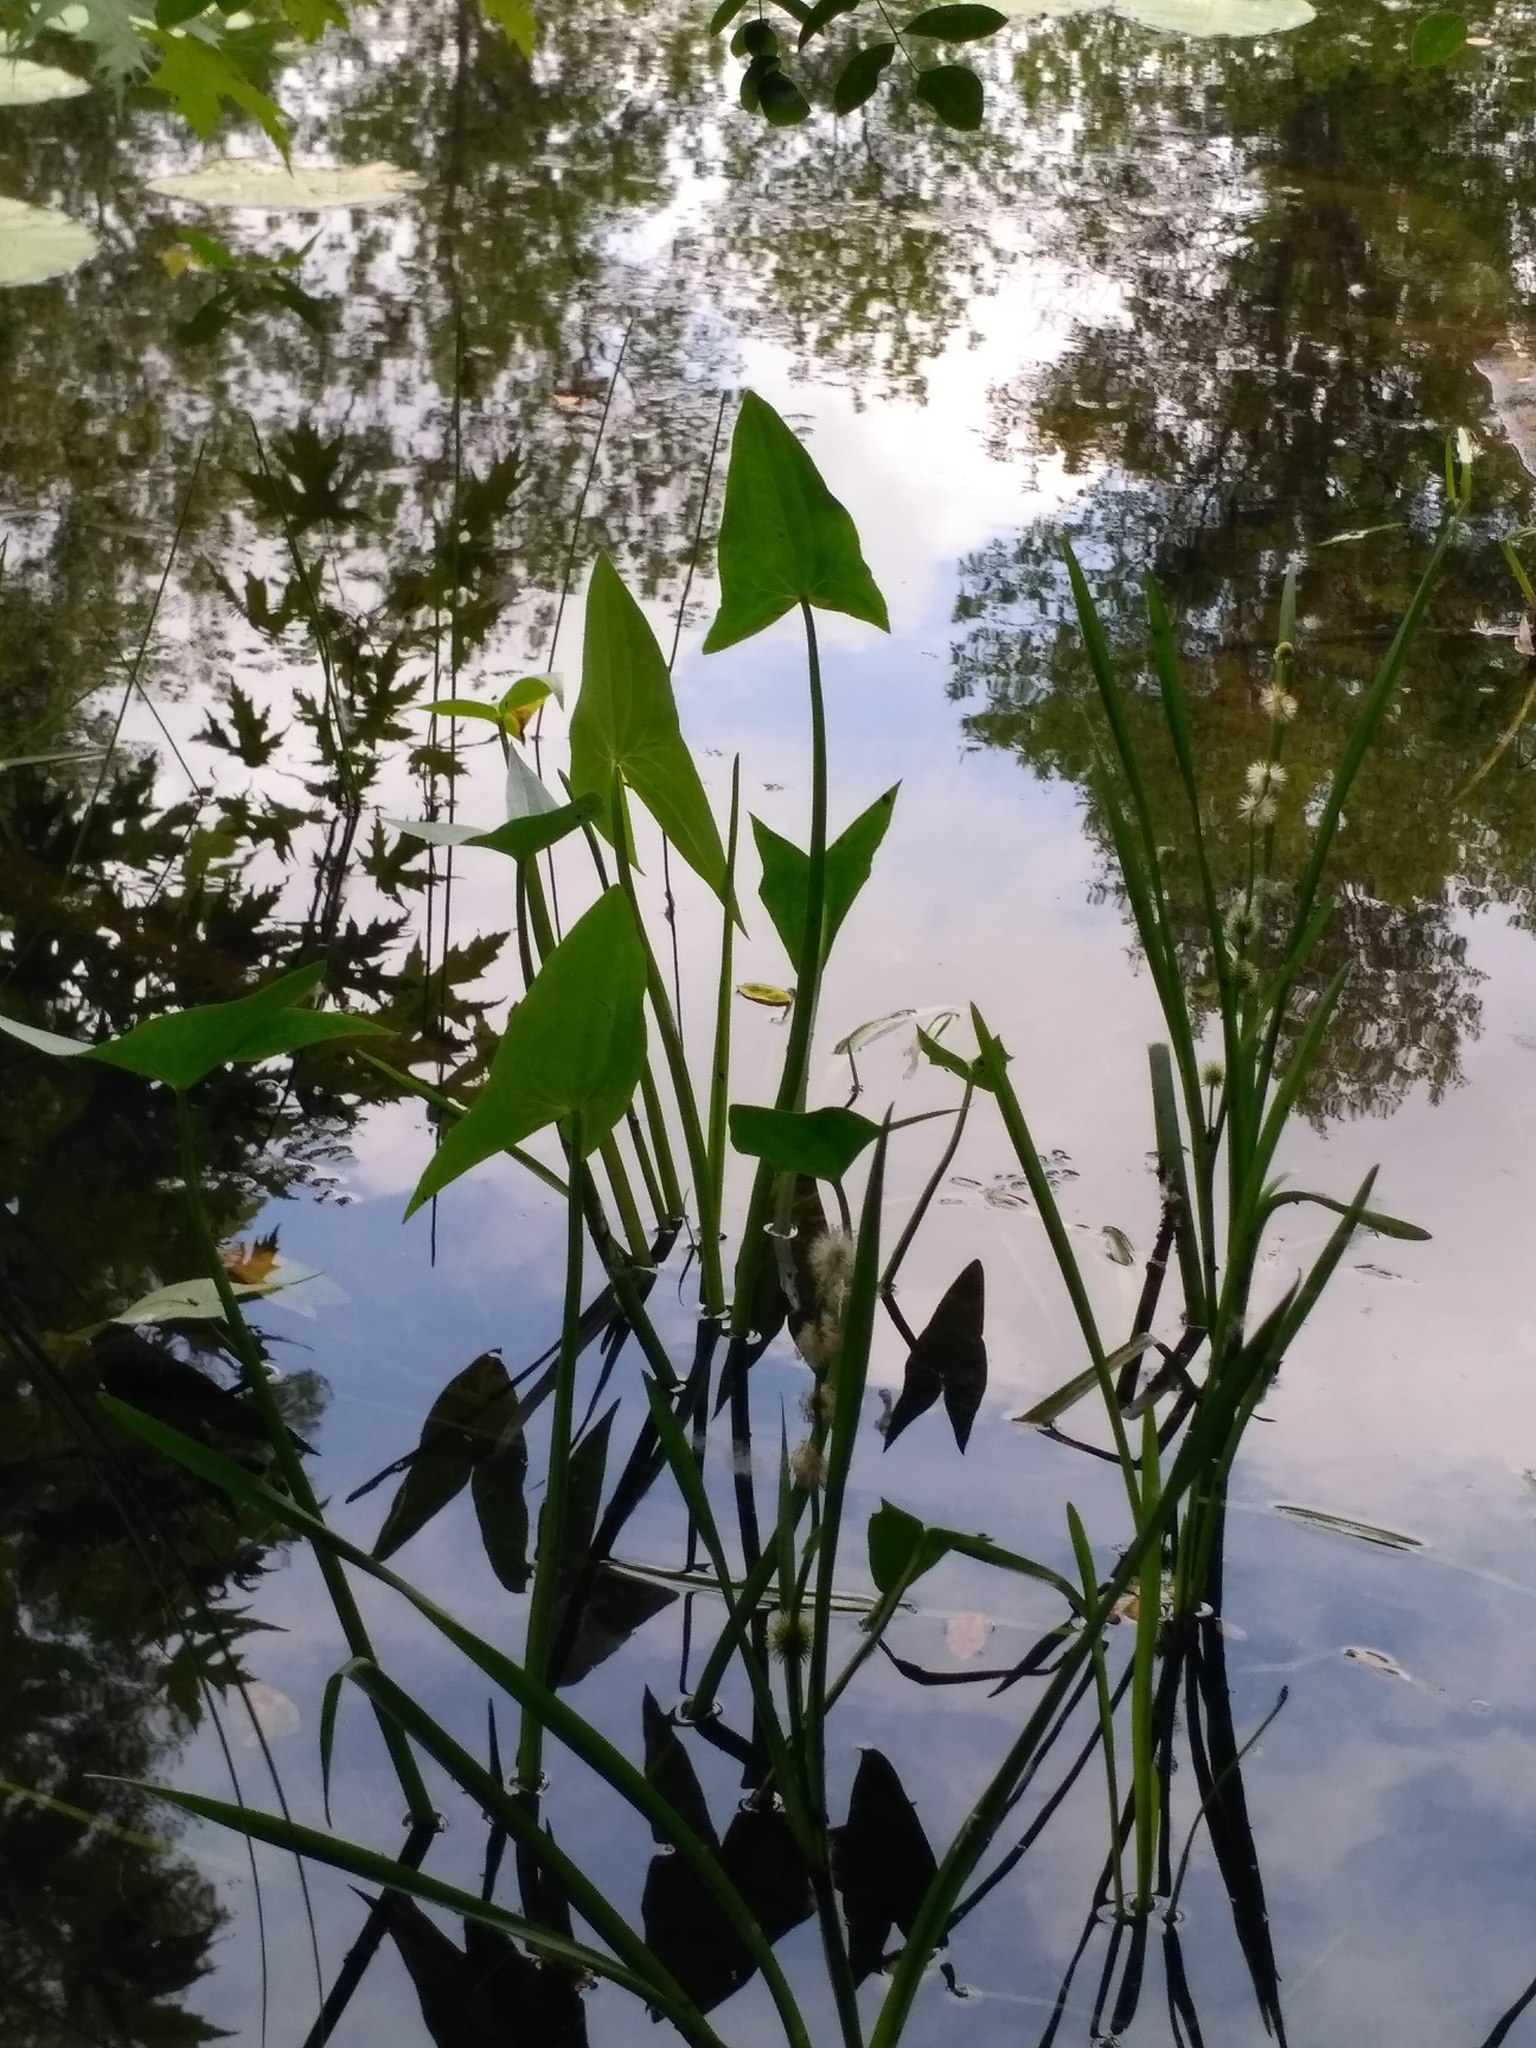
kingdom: Plantae
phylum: Tracheophyta
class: Liliopsida
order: Alismatales
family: Alismataceae
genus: Sagittaria
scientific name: Sagittaria sagittifolia
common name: Arrowhead
